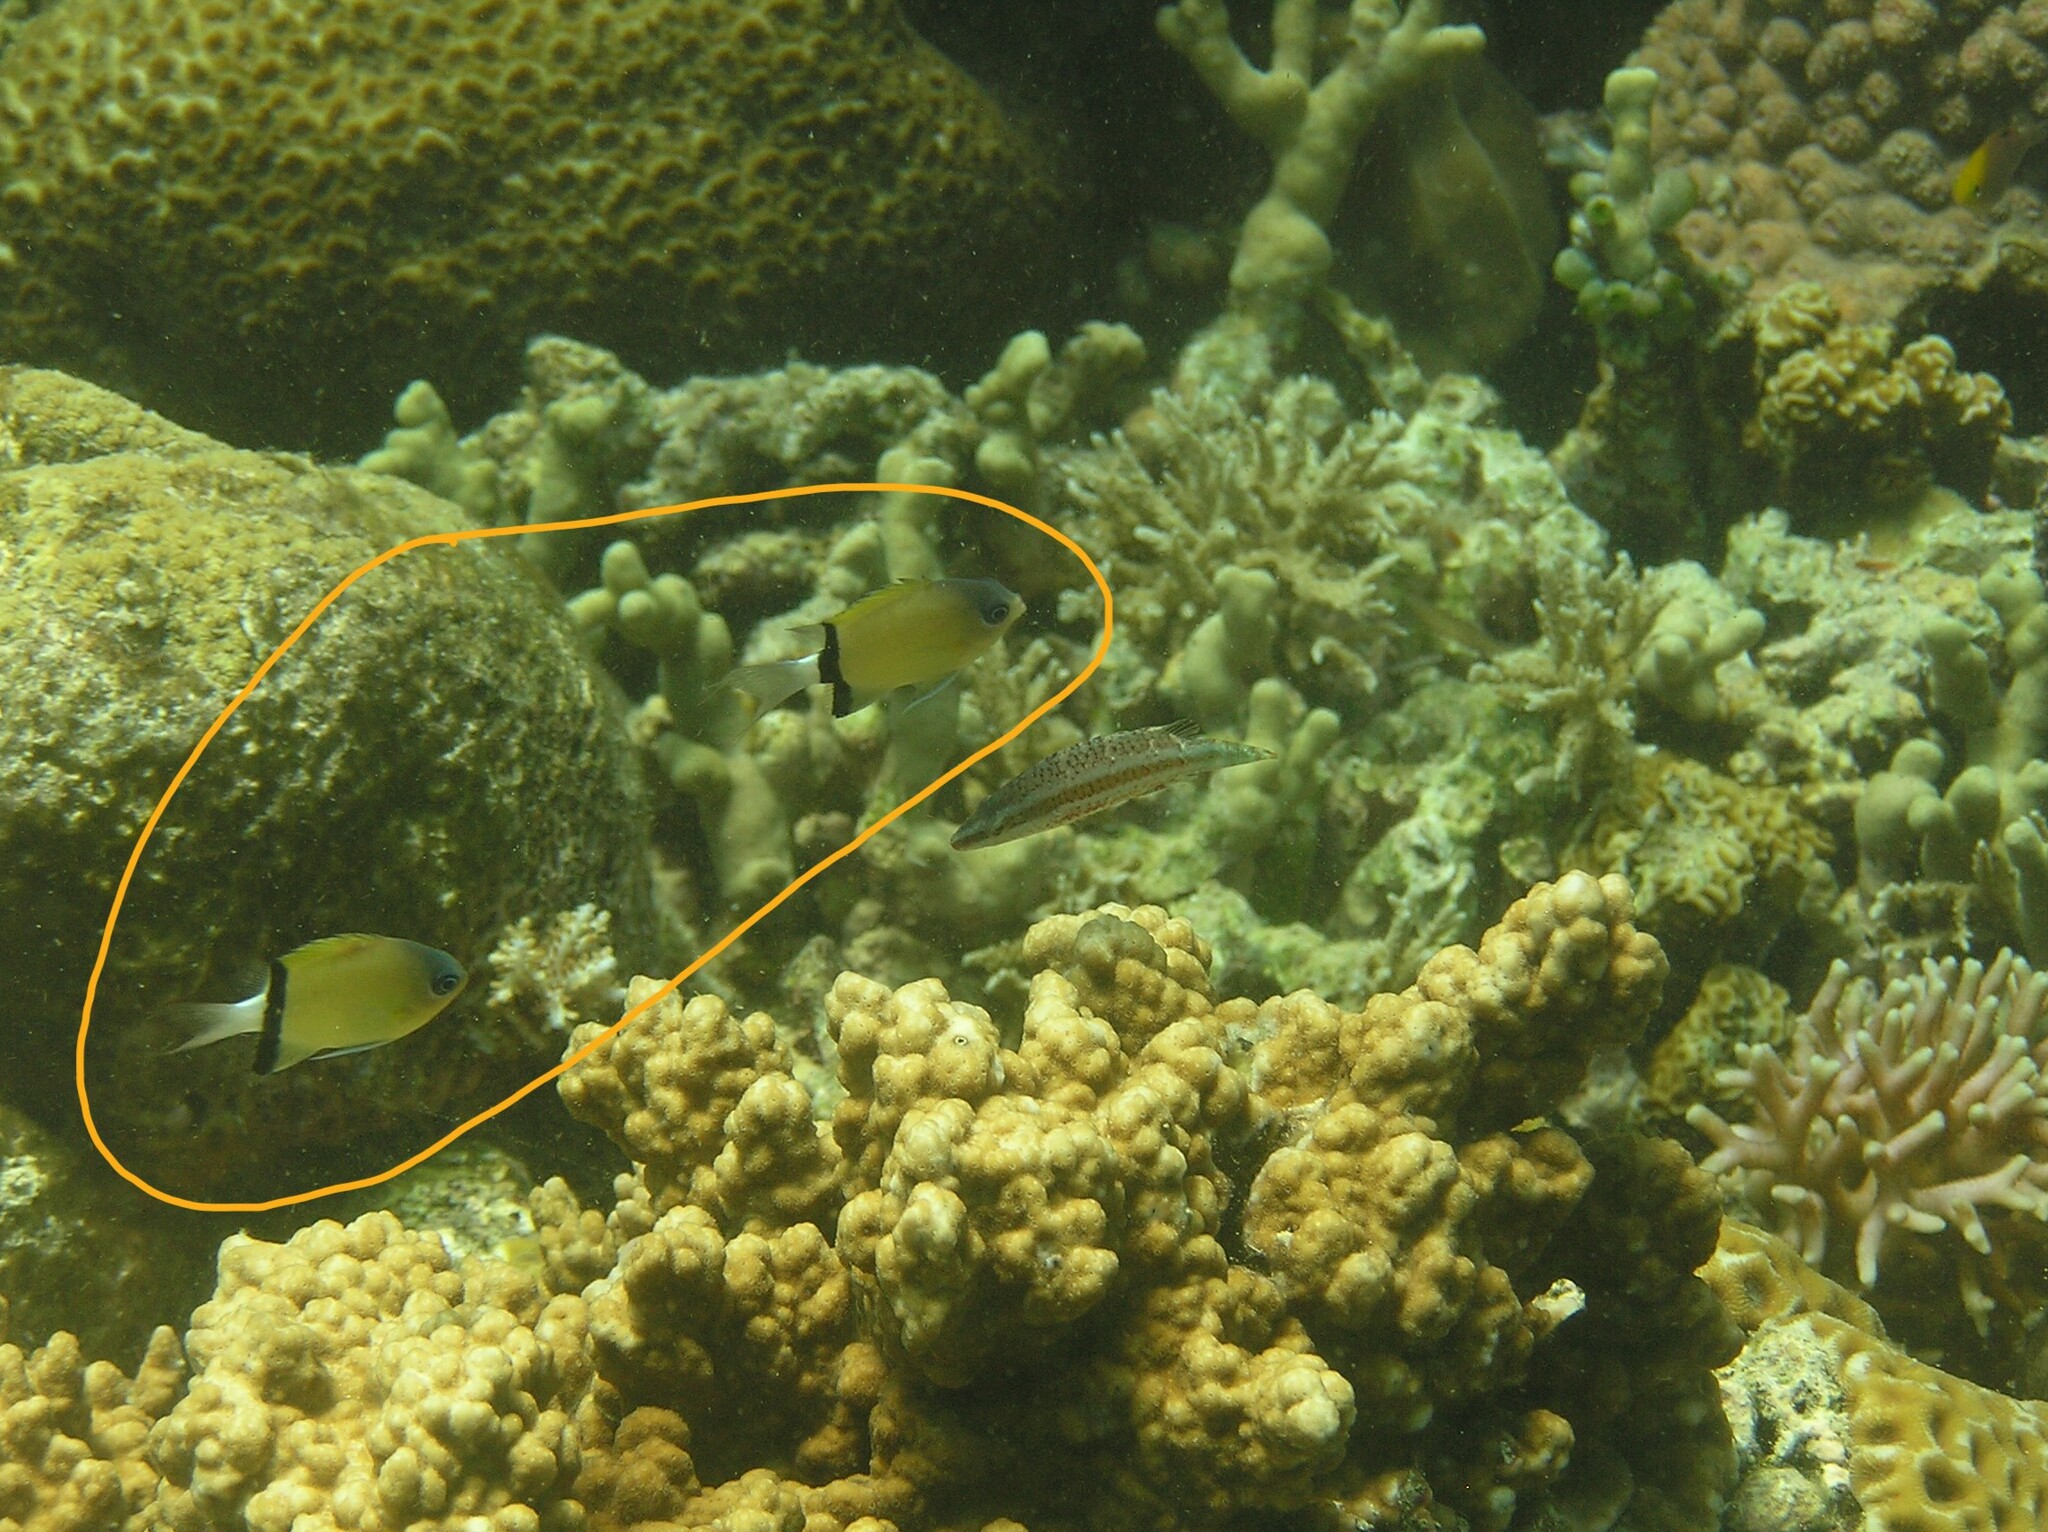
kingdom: Animalia
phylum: Chordata
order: Perciformes
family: Pomacentridae
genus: Chromis
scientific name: Chromis retrofasciata
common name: Black-bar chromis
